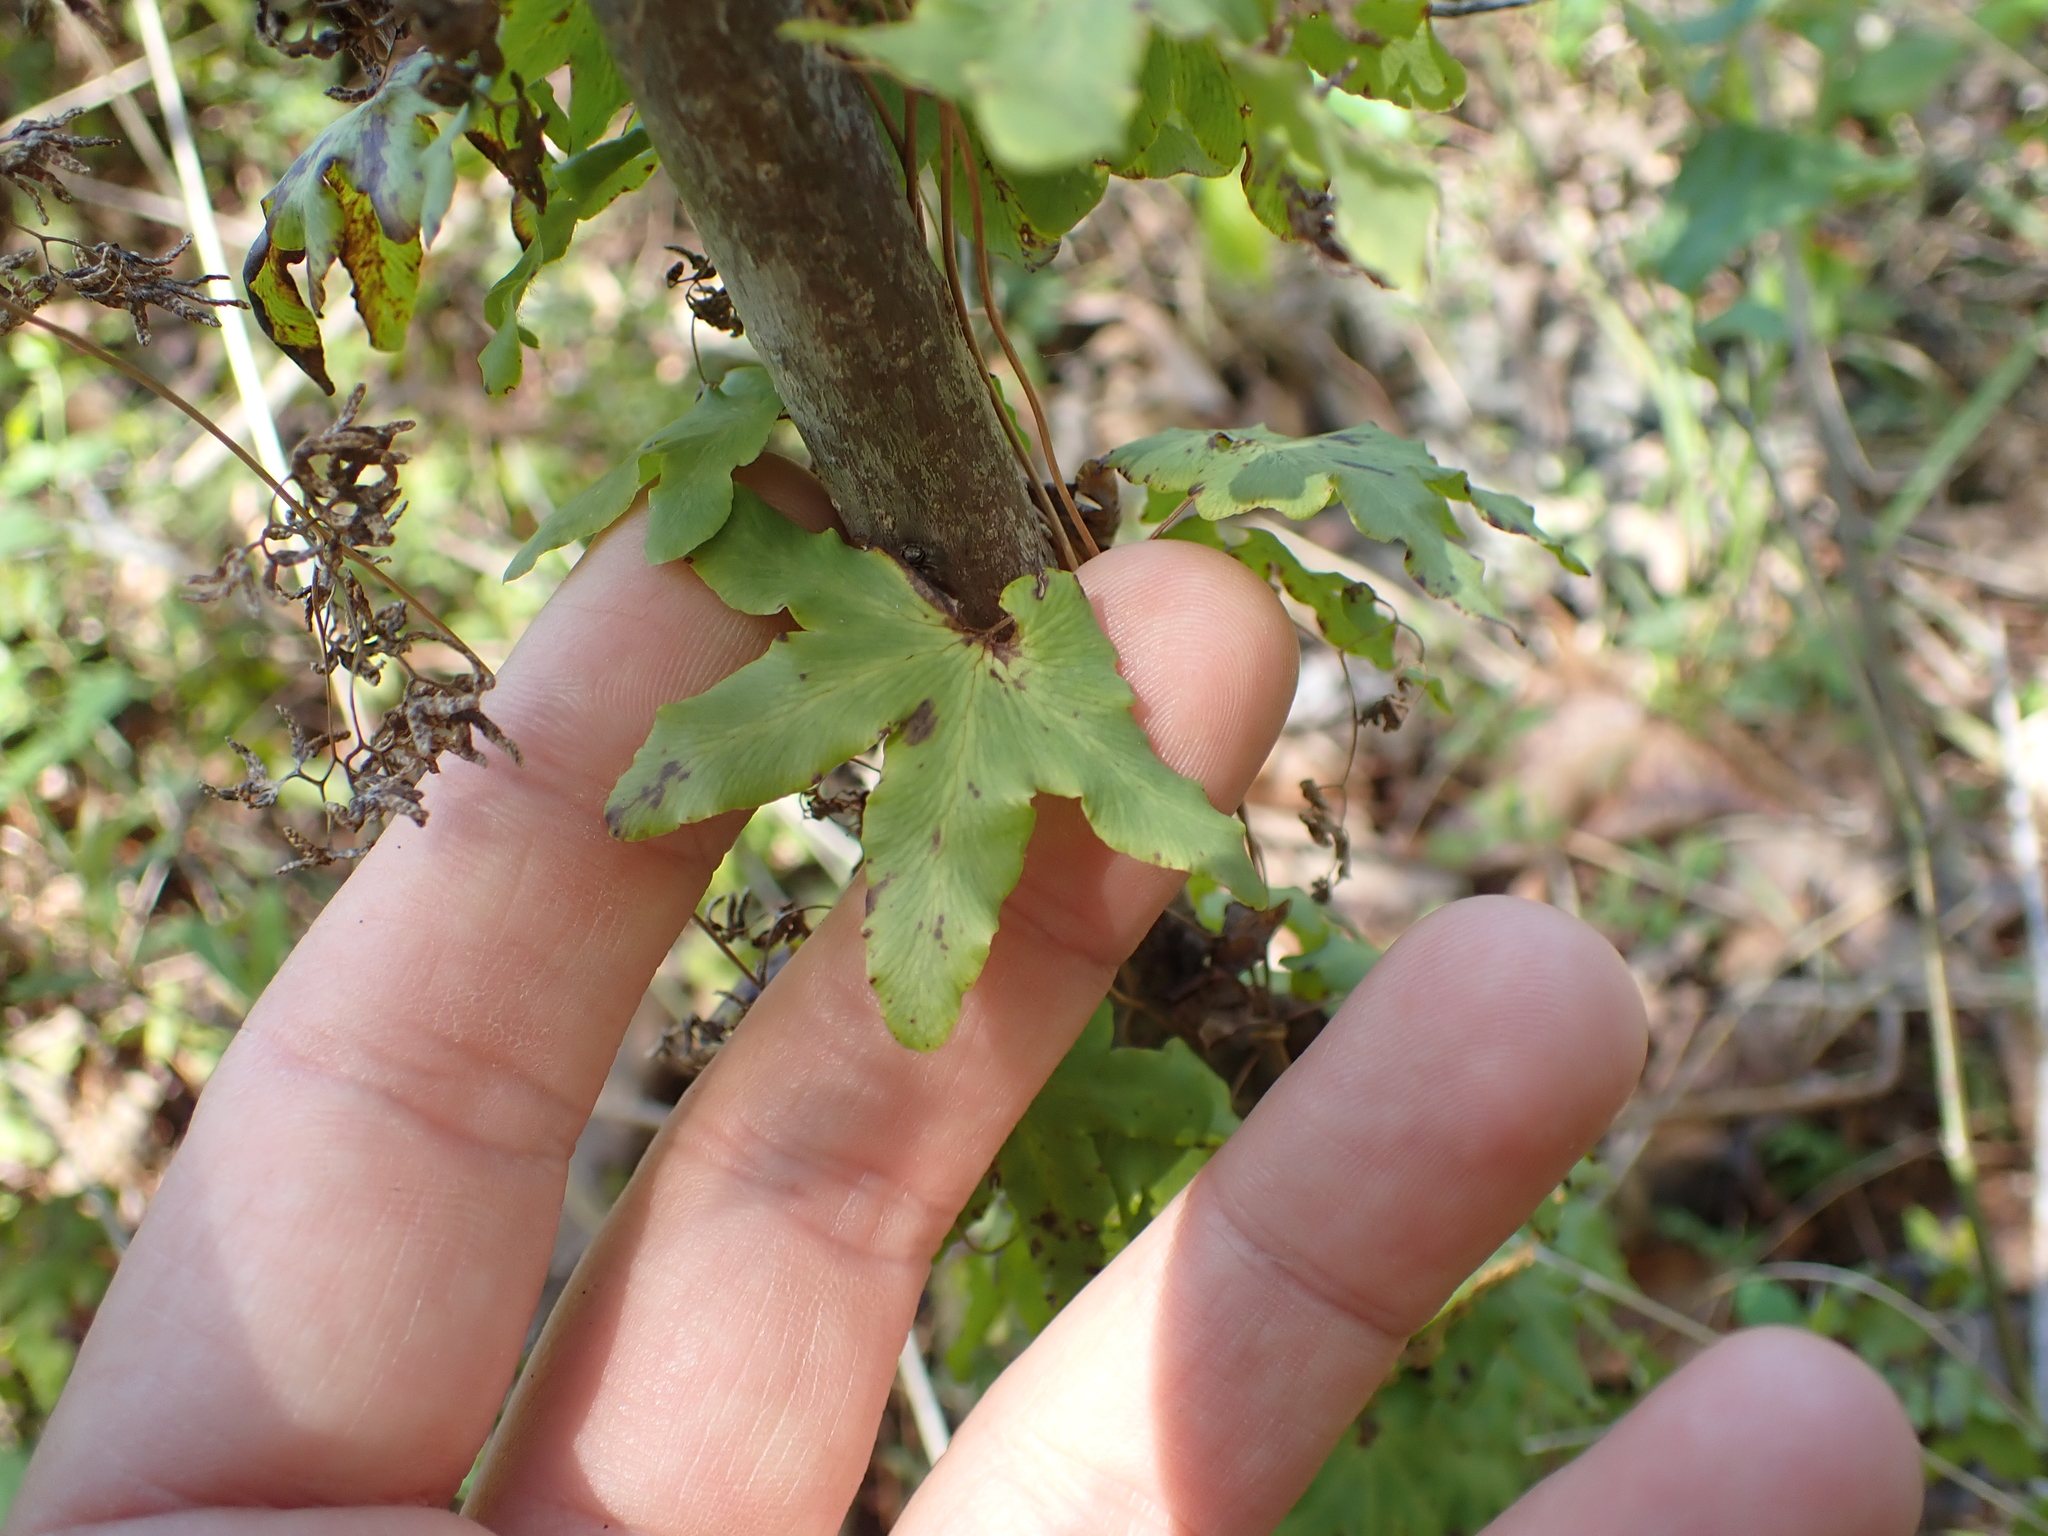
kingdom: Plantae
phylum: Tracheophyta
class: Polypodiopsida
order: Schizaeales
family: Lygodiaceae
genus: Lygodium
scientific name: Lygodium palmatum
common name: American climbing fern
